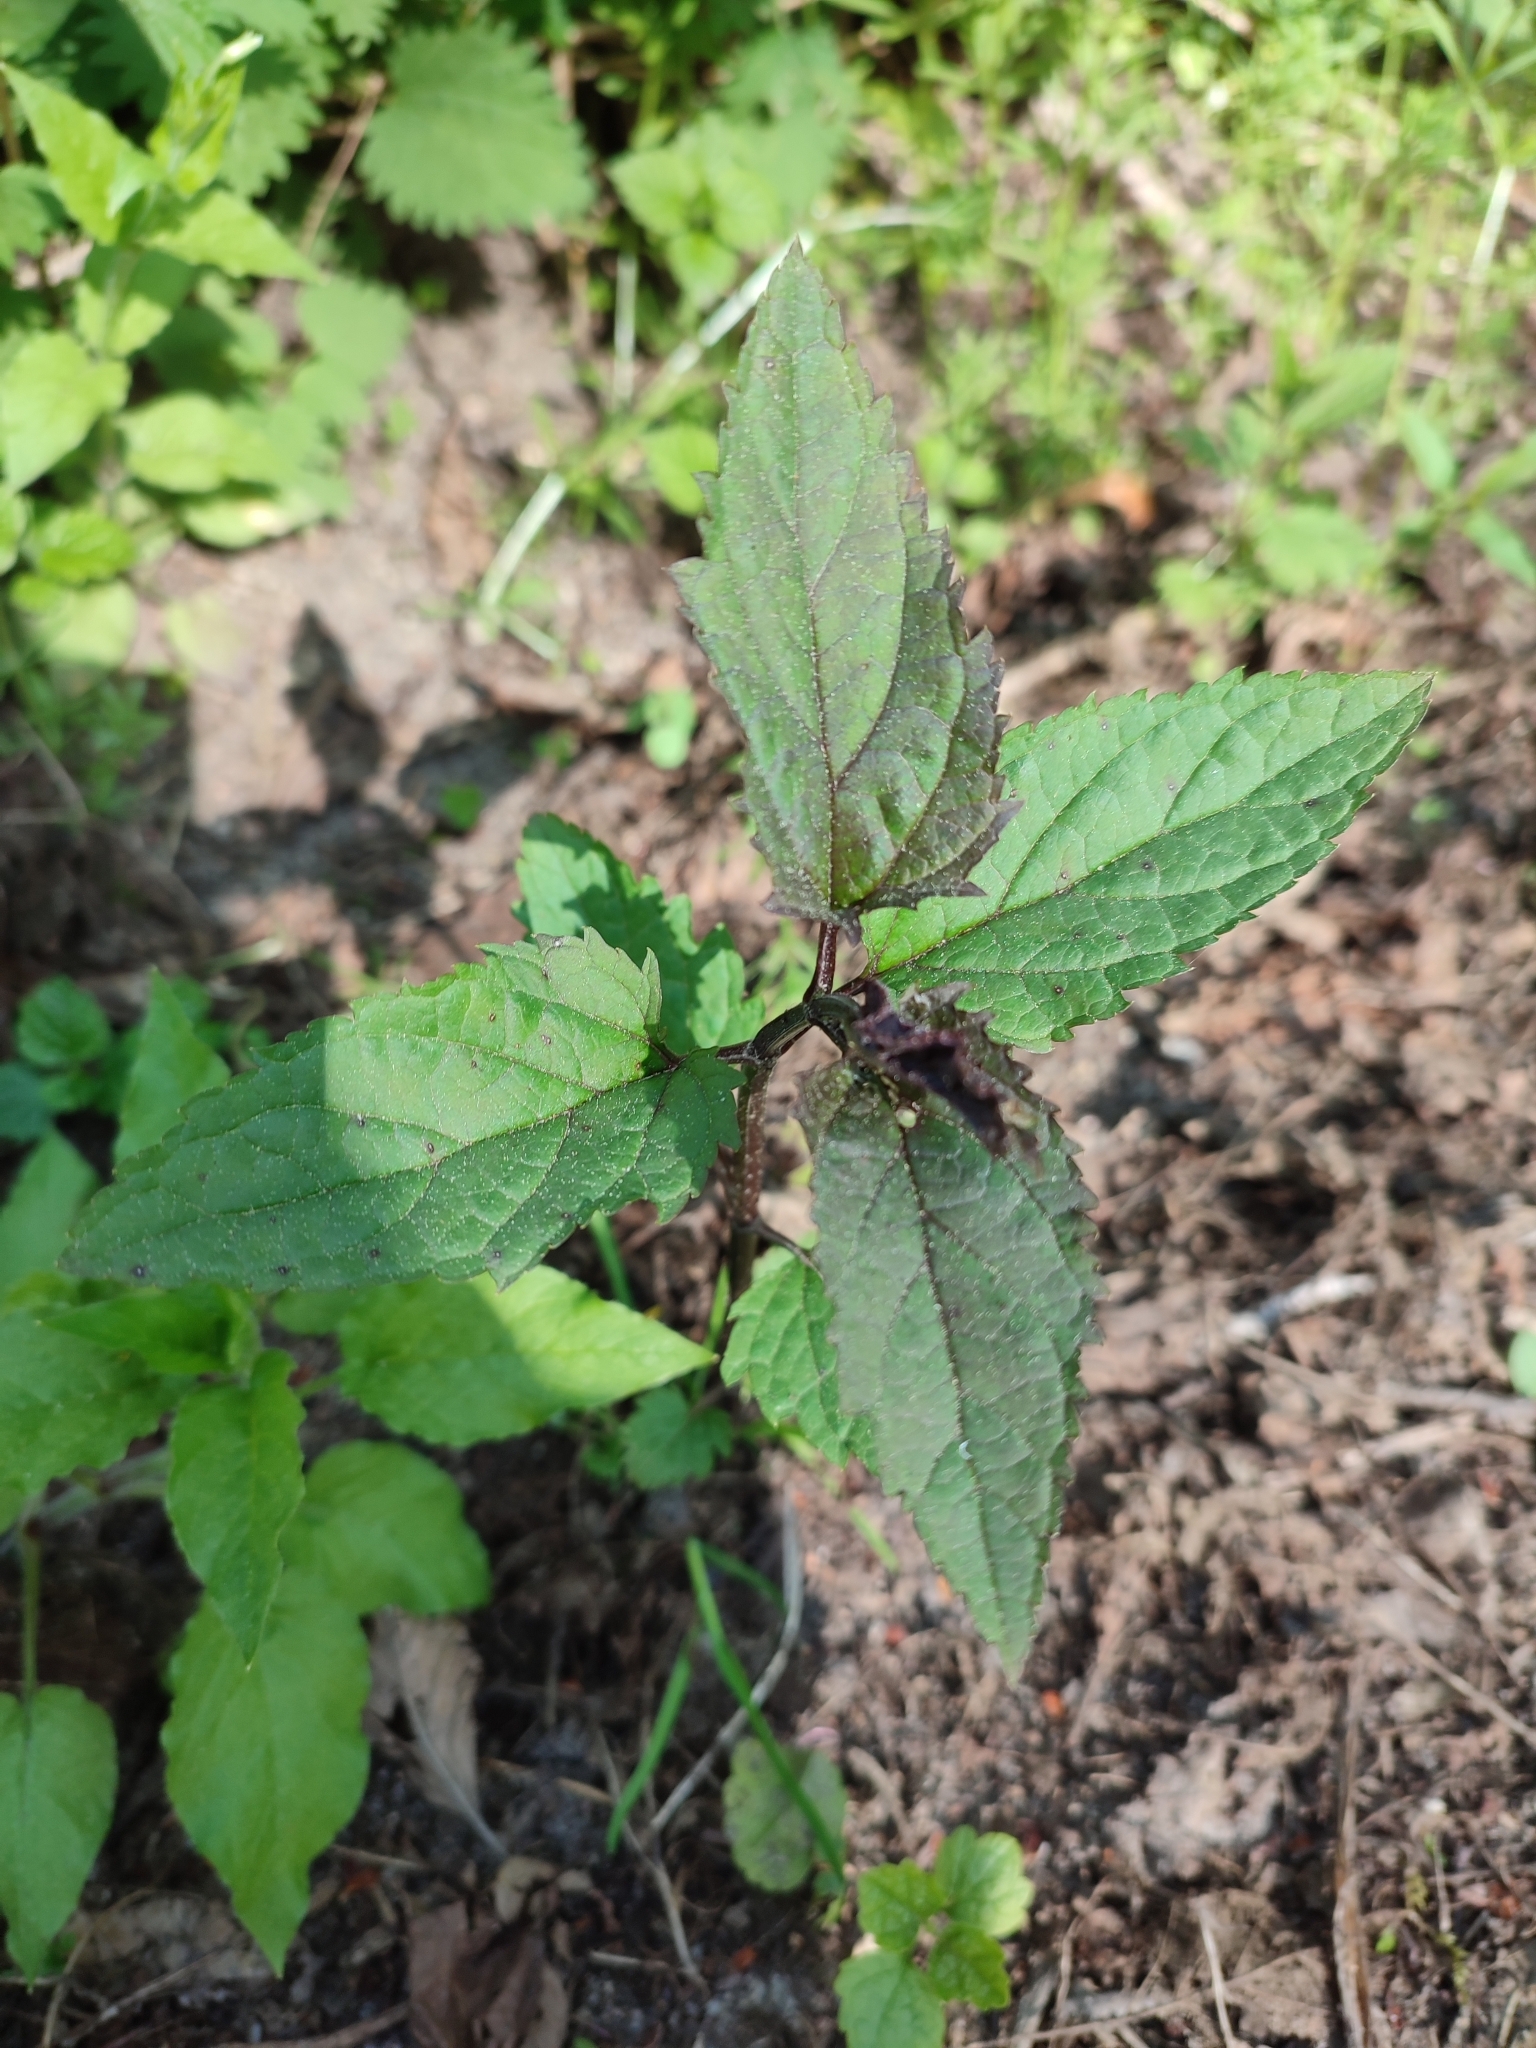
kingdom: Plantae
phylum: Tracheophyta
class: Magnoliopsida
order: Lamiales
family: Scrophulariaceae
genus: Scrophularia
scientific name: Scrophularia nodosa
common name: Common figwort
